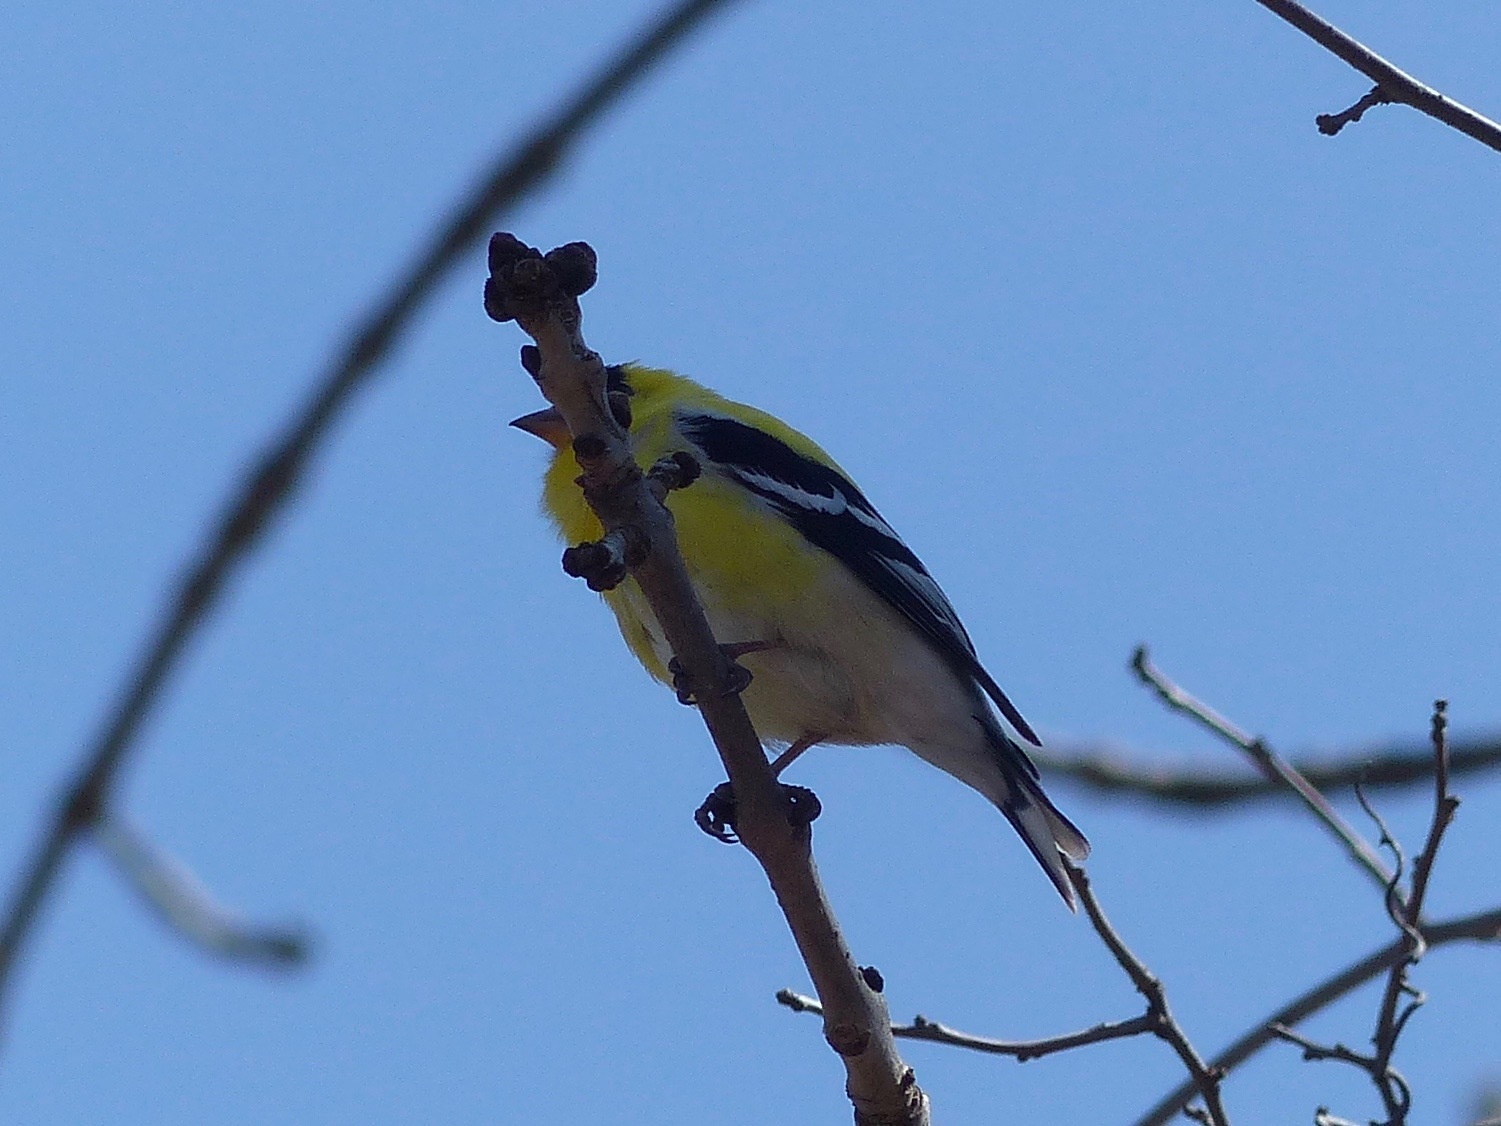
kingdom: Animalia
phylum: Chordata
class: Aves
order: Passeriformes
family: Fringillidae
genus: Spinus
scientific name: Spinus tristis
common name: American goldfinch
